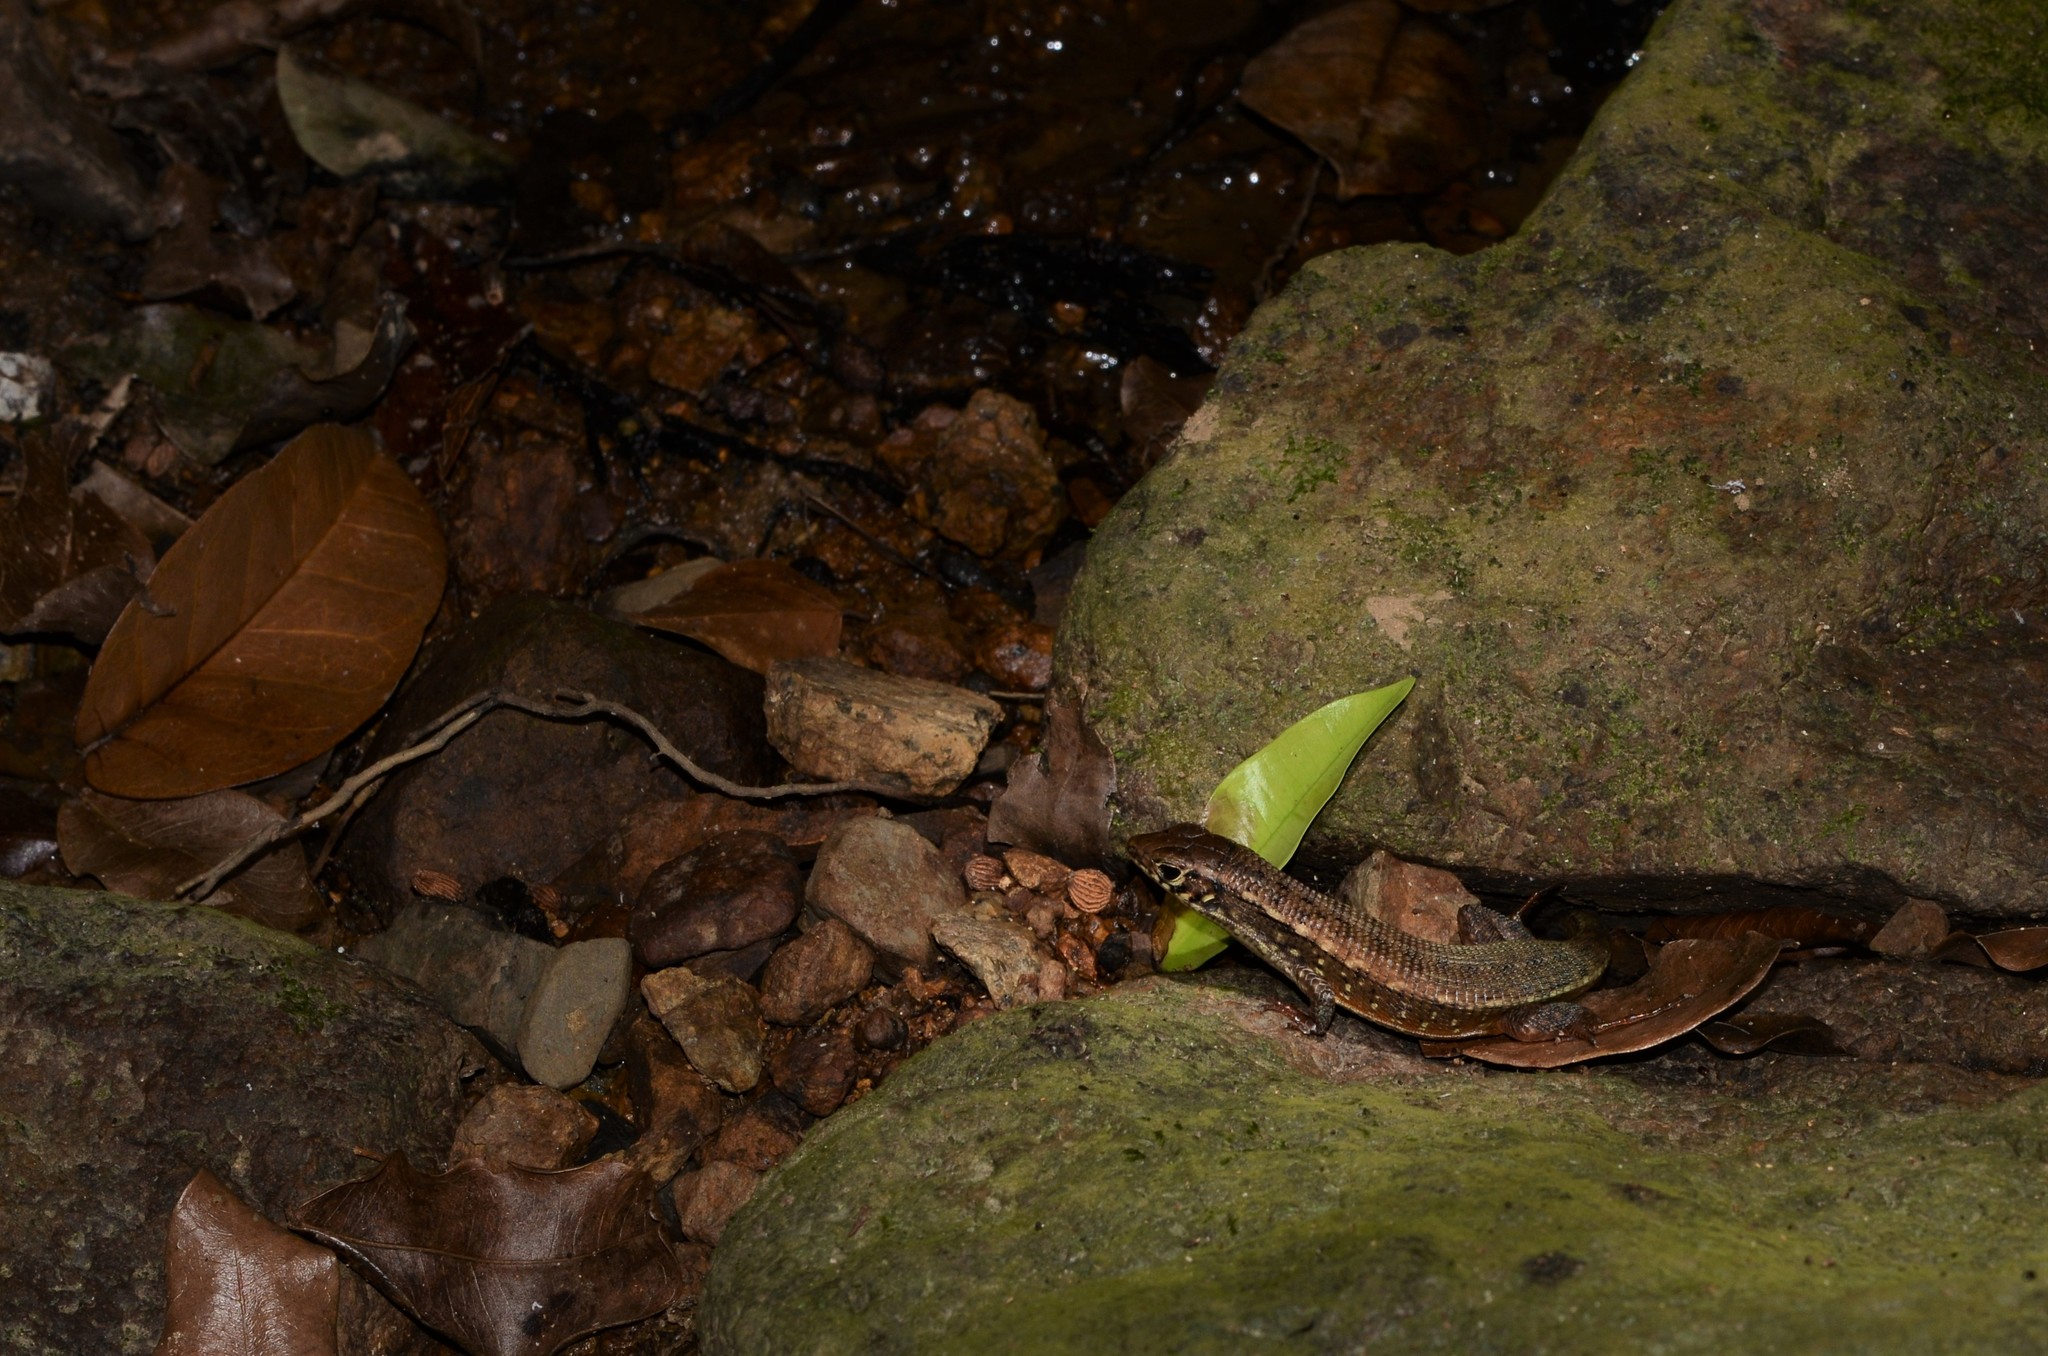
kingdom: Animalia
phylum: Chordata
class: Squamata
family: Gerrhosauridae
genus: Zonosaurus
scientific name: Zonosaurus rufipes
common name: Red-legged girdled lizard
